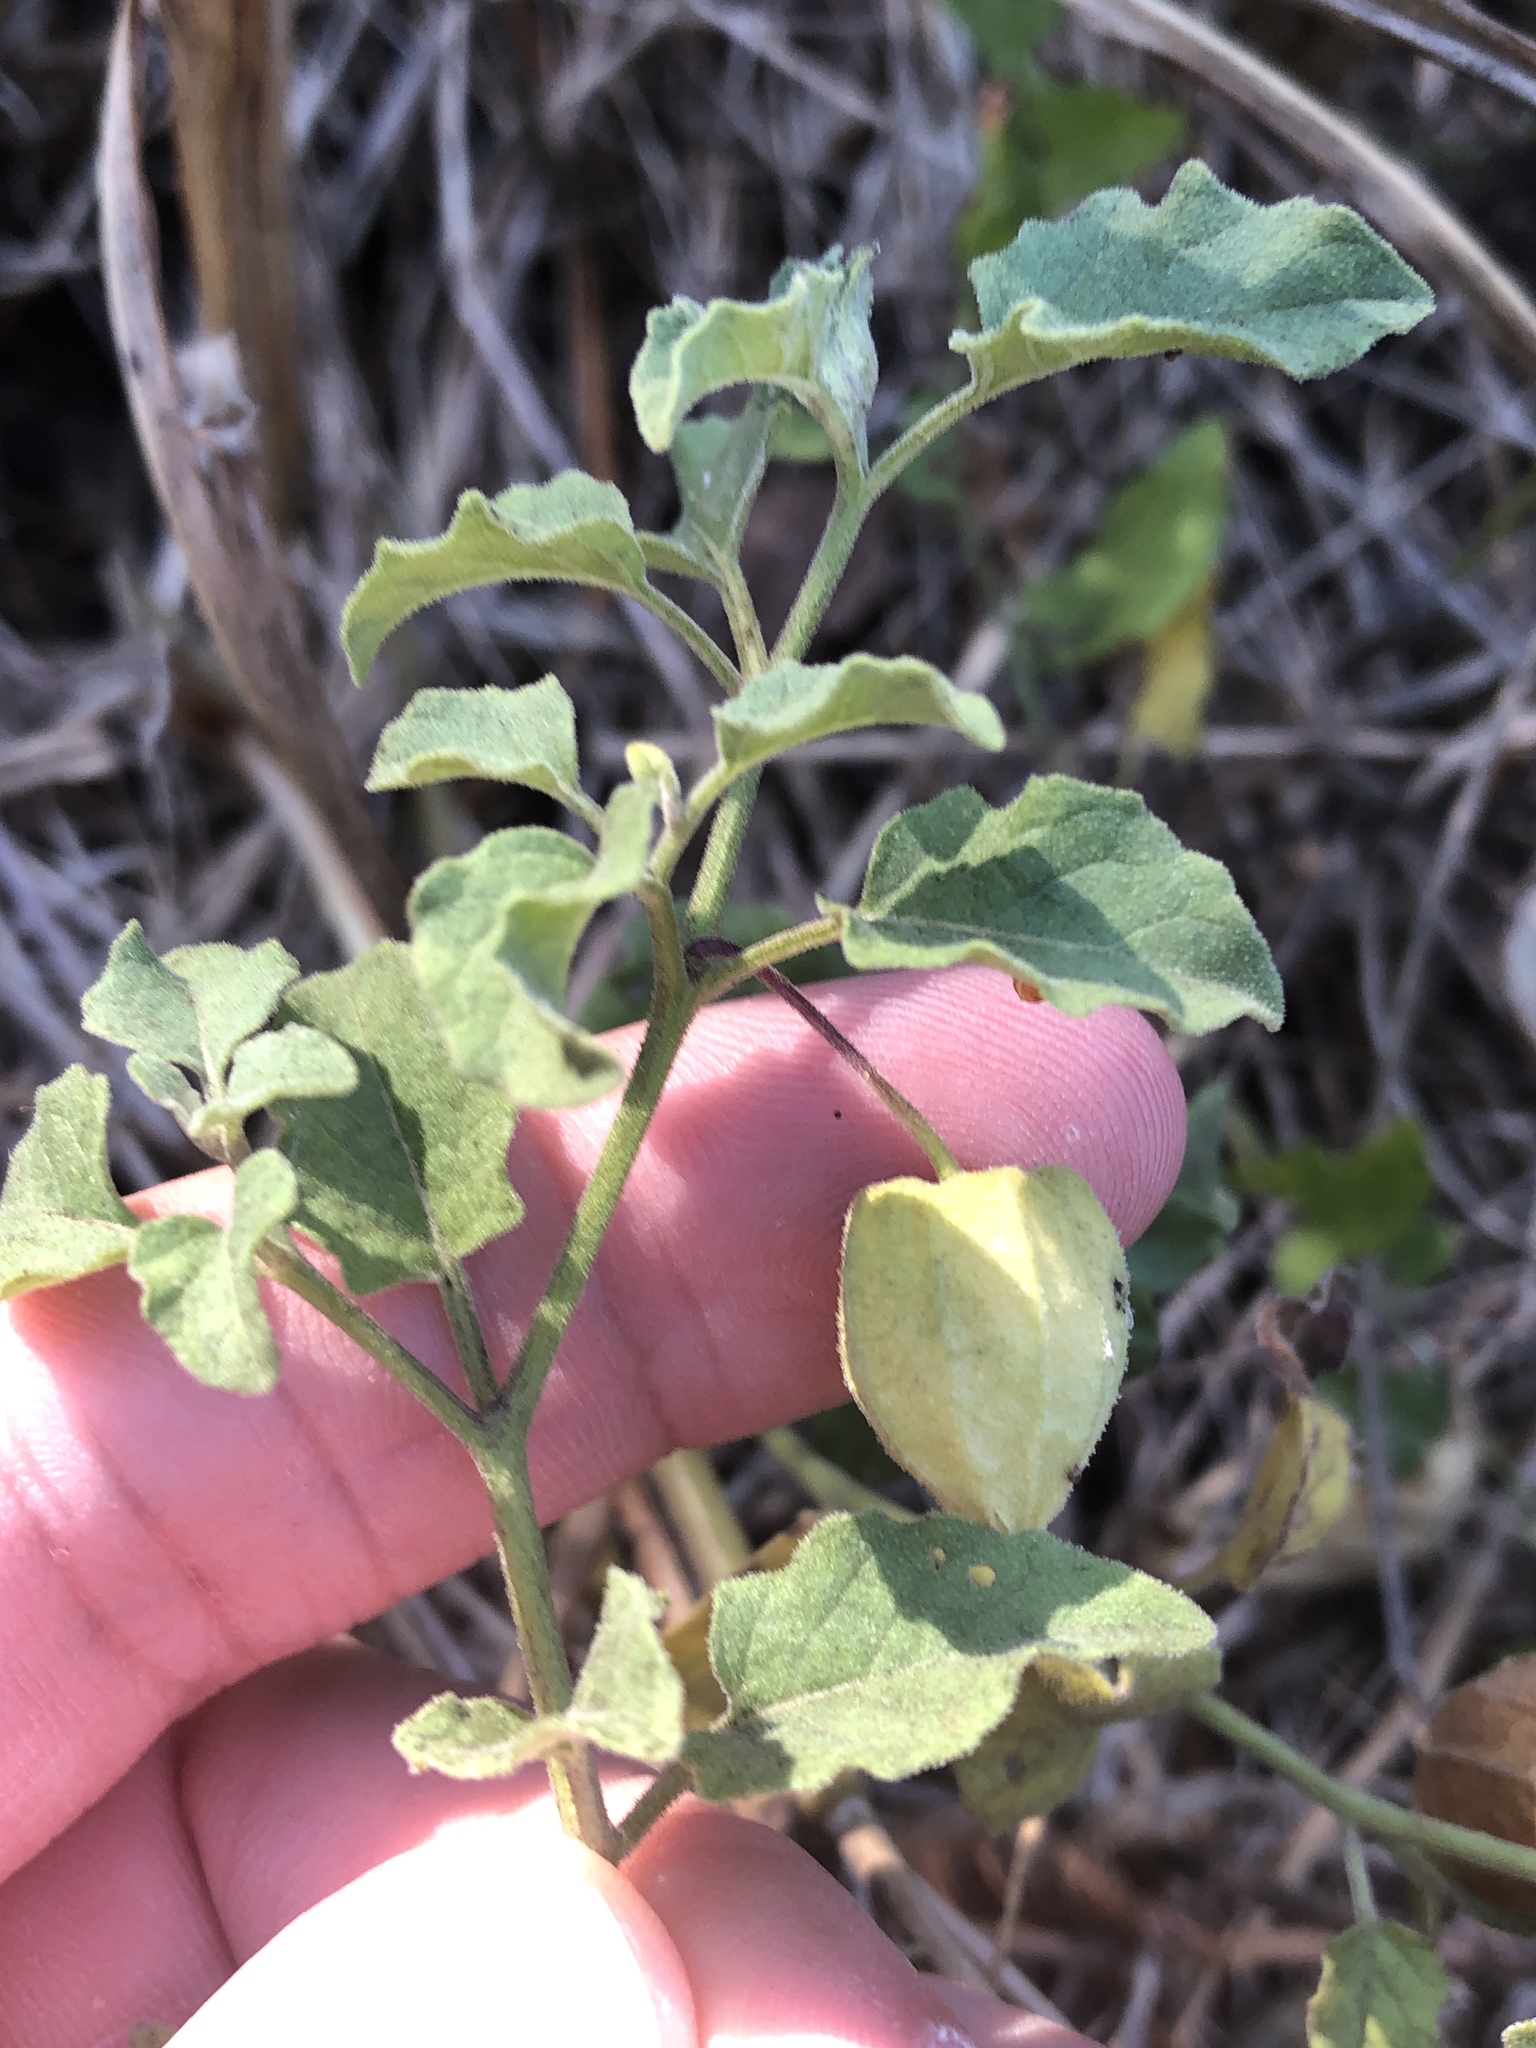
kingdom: Plantae
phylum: Tracheophyta
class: Magnoliopsida
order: Solanales
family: Solanaceae
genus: Physalis
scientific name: Physalis mollis
